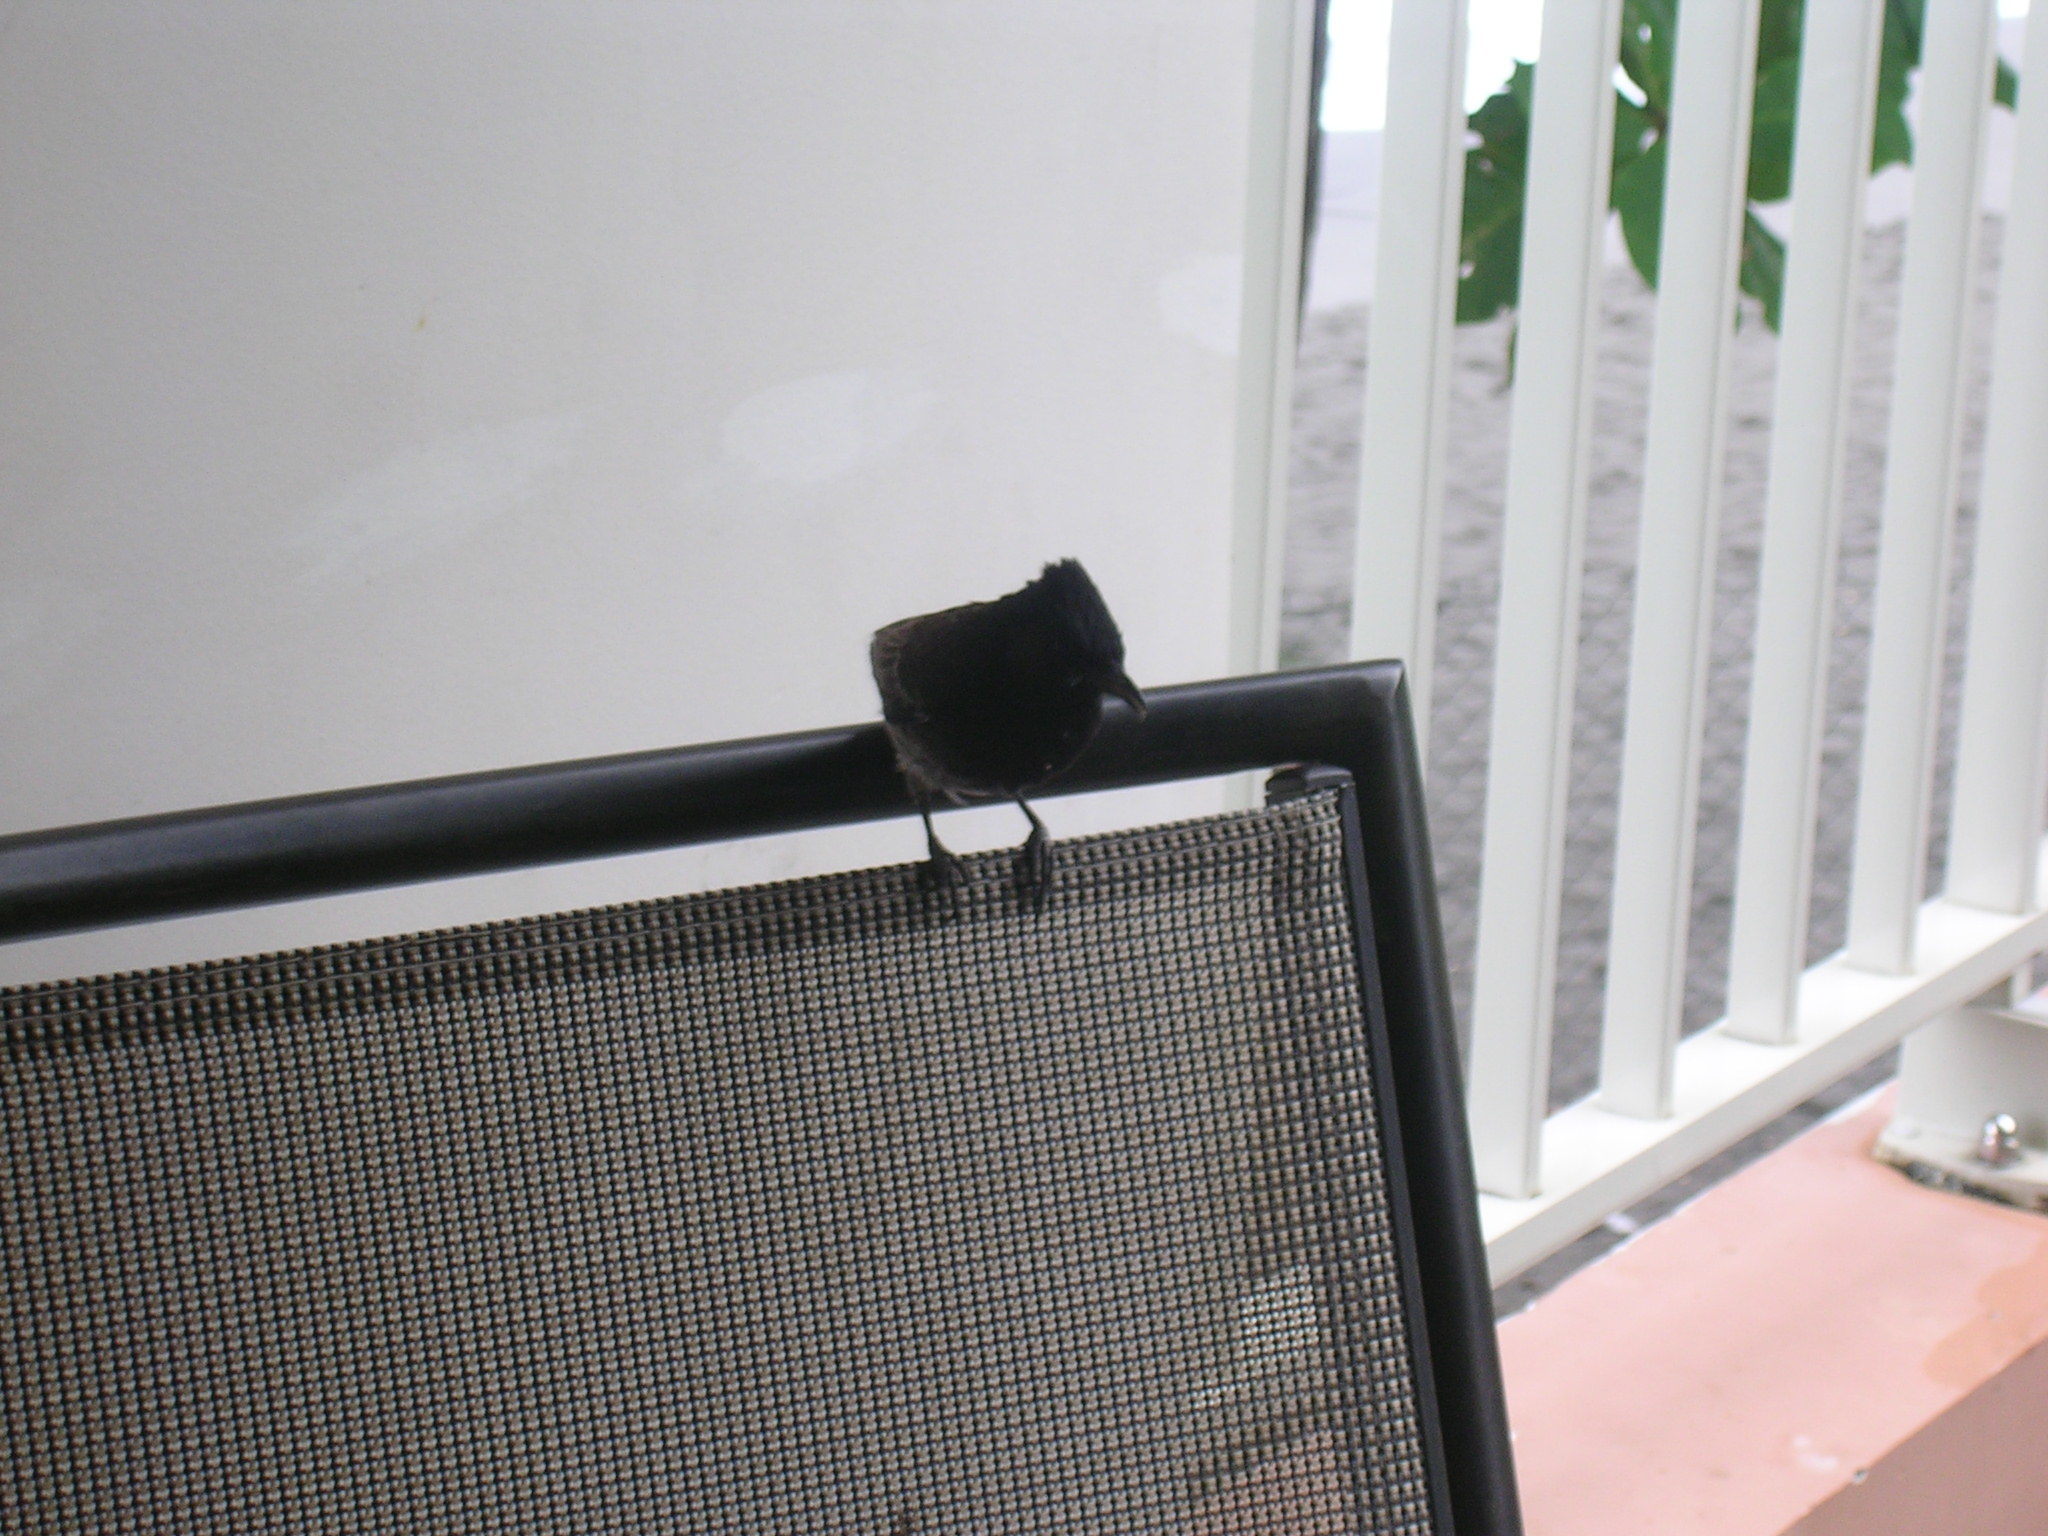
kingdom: Animalia
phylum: Chordata
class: Aves
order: Passeriformes
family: Pycnonotidae
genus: Pycnonotus
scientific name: Pycnonotus cafer
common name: Red-vented bulbul
